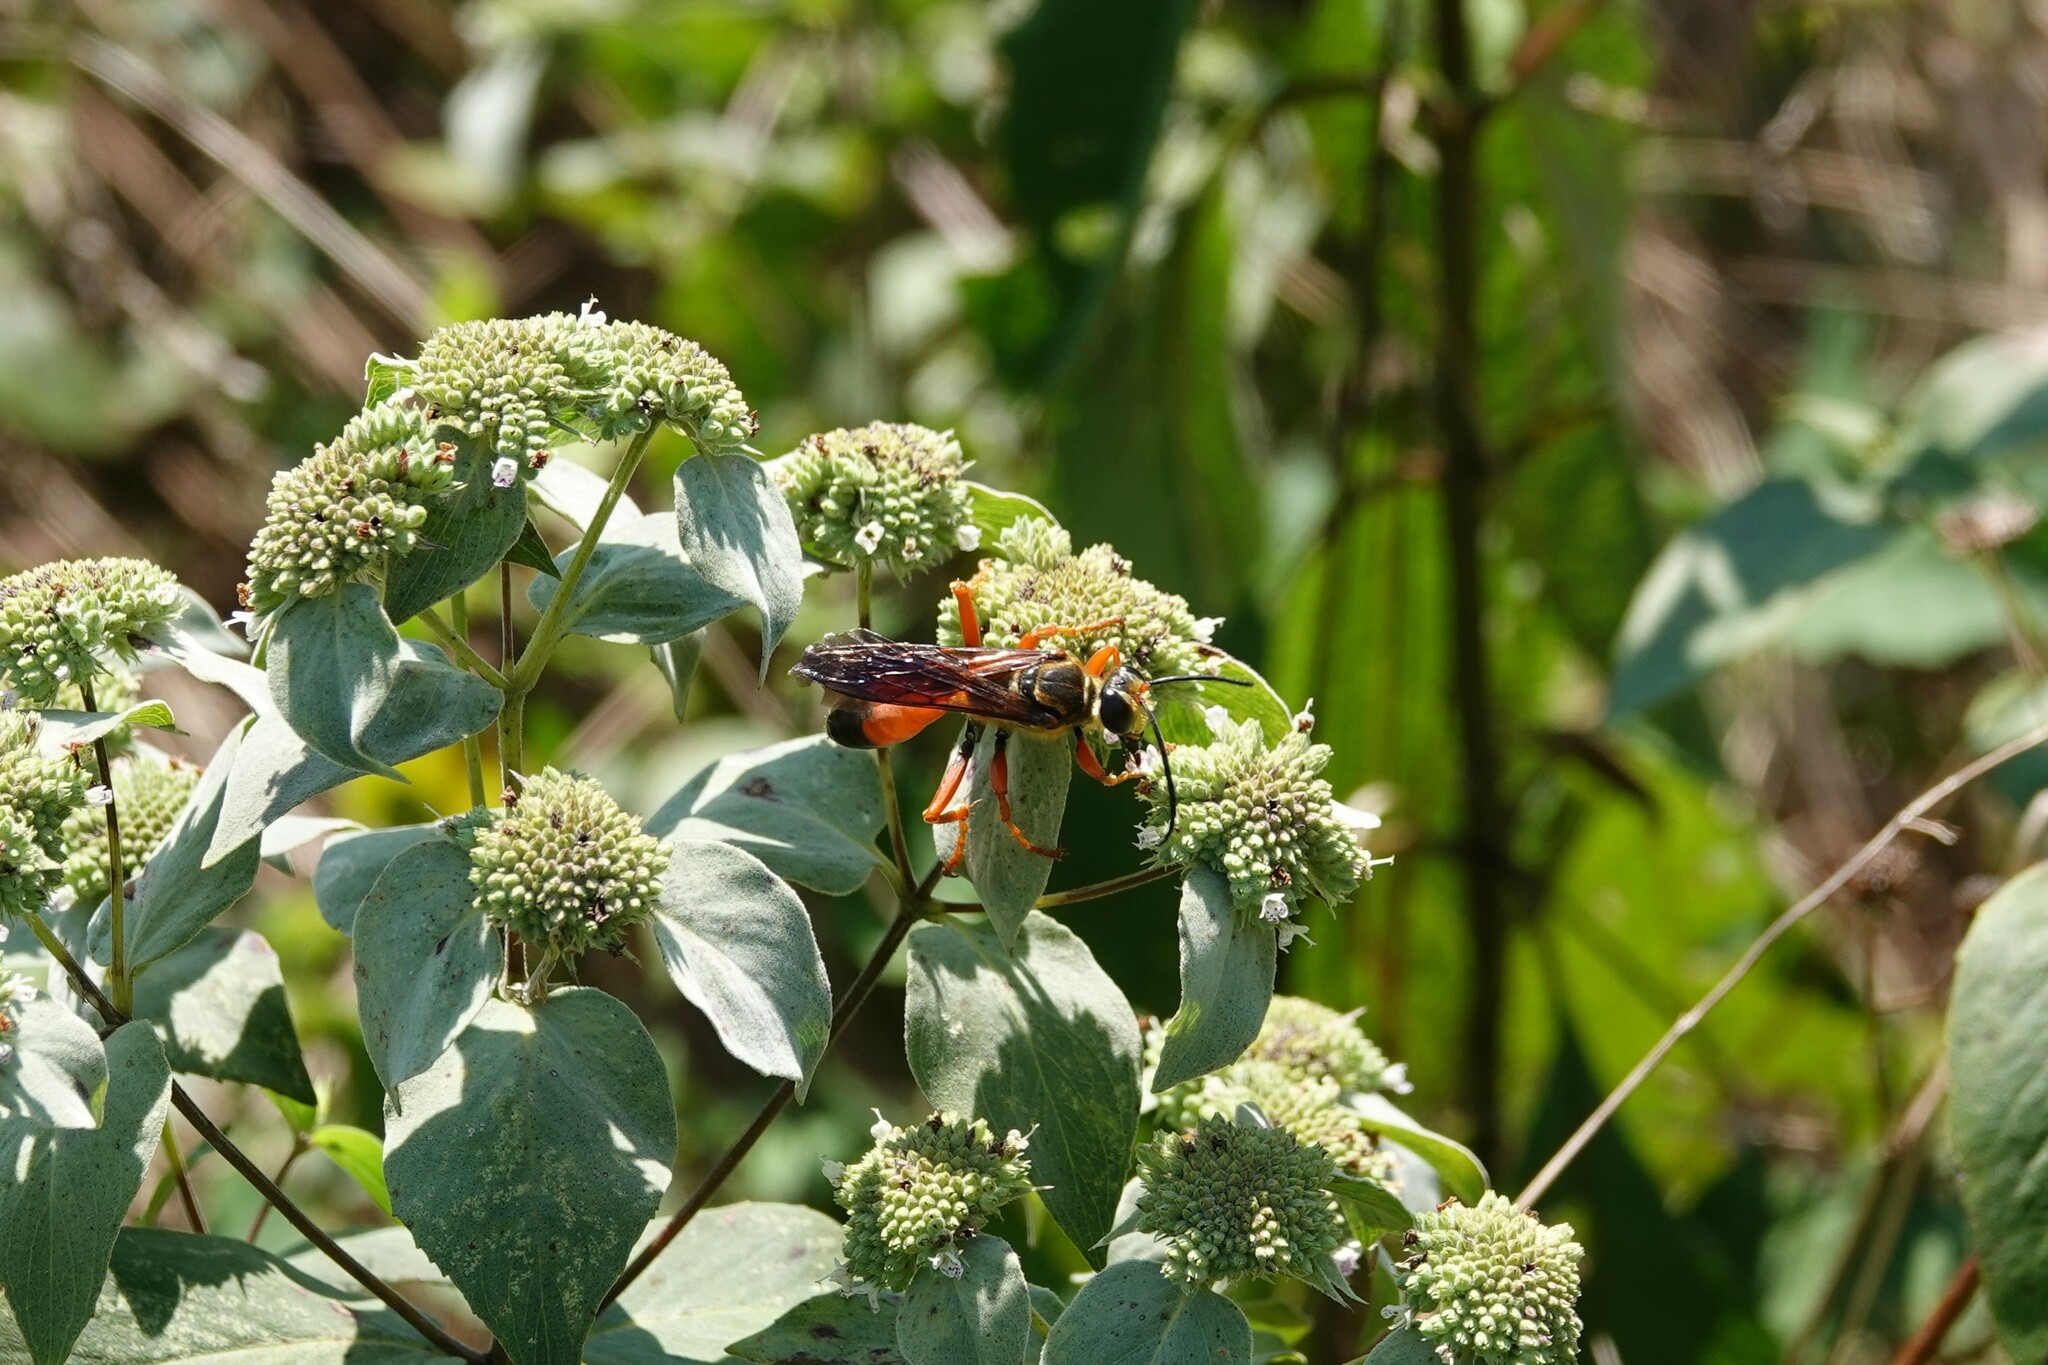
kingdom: Animalia
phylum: Arthropoda
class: Insecta
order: Hymenoptera
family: Sphecidae
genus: Sphex
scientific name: Sphex ichneumoneus
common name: Great golden digger wasp
